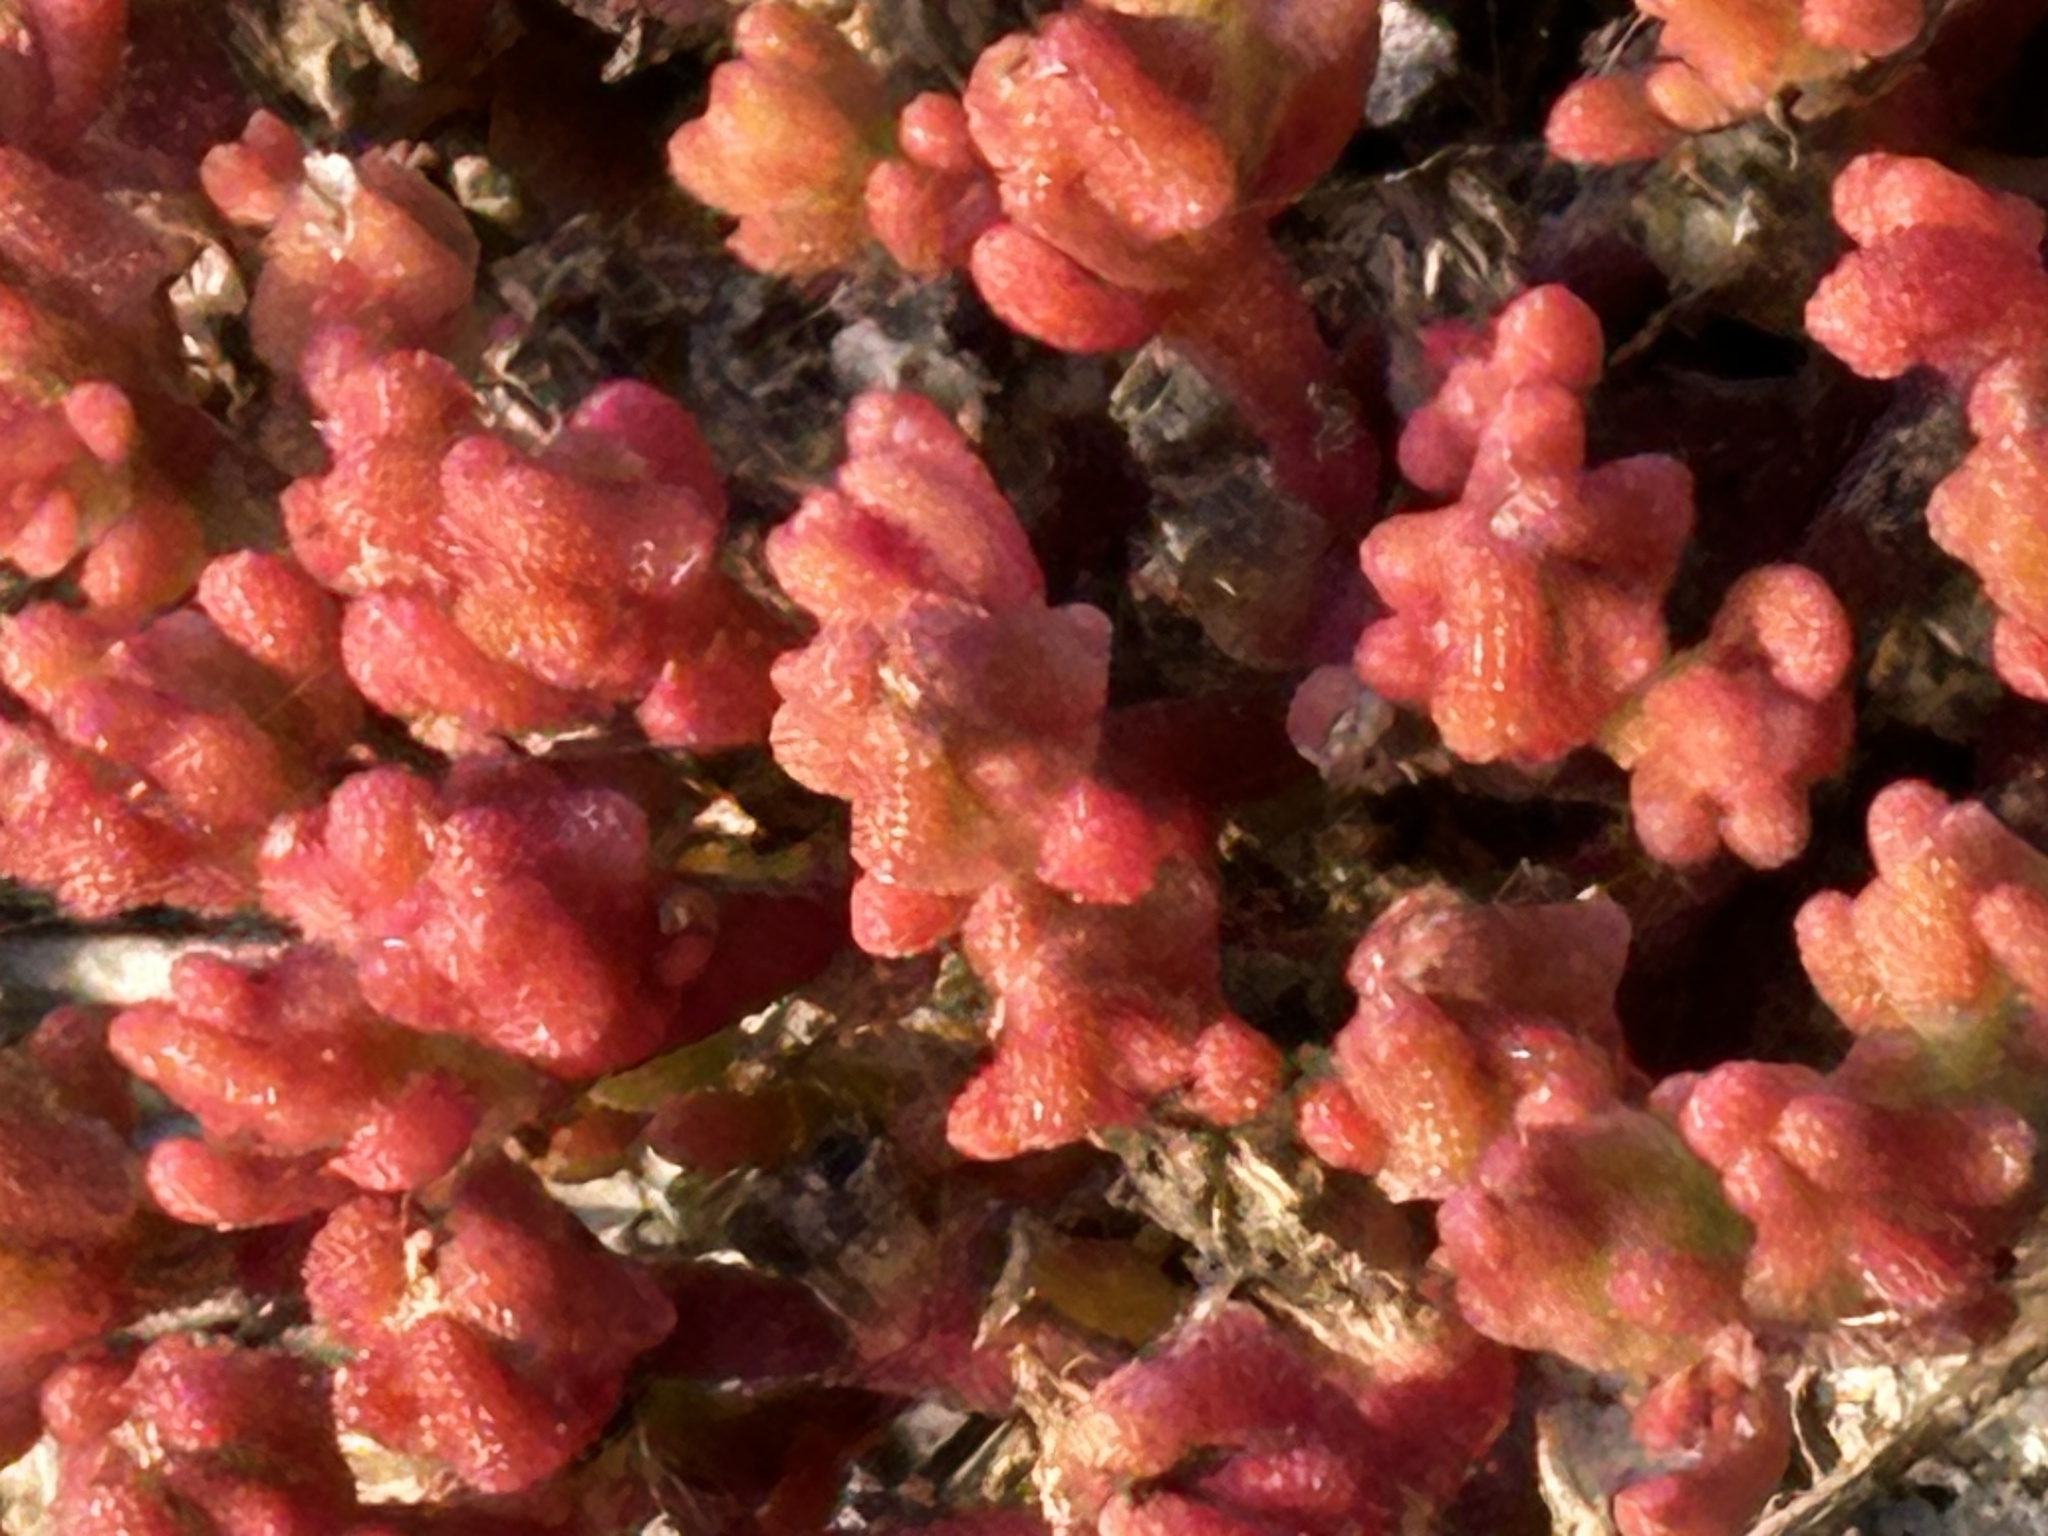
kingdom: Plantae
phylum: Tracheophyta
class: Magnoliopsida
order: Caryophyllales
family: Aizoaceae
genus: Mesembryanthemum
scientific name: Mesembryanthemum nodiflorum
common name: Slenderleaf iceplant
